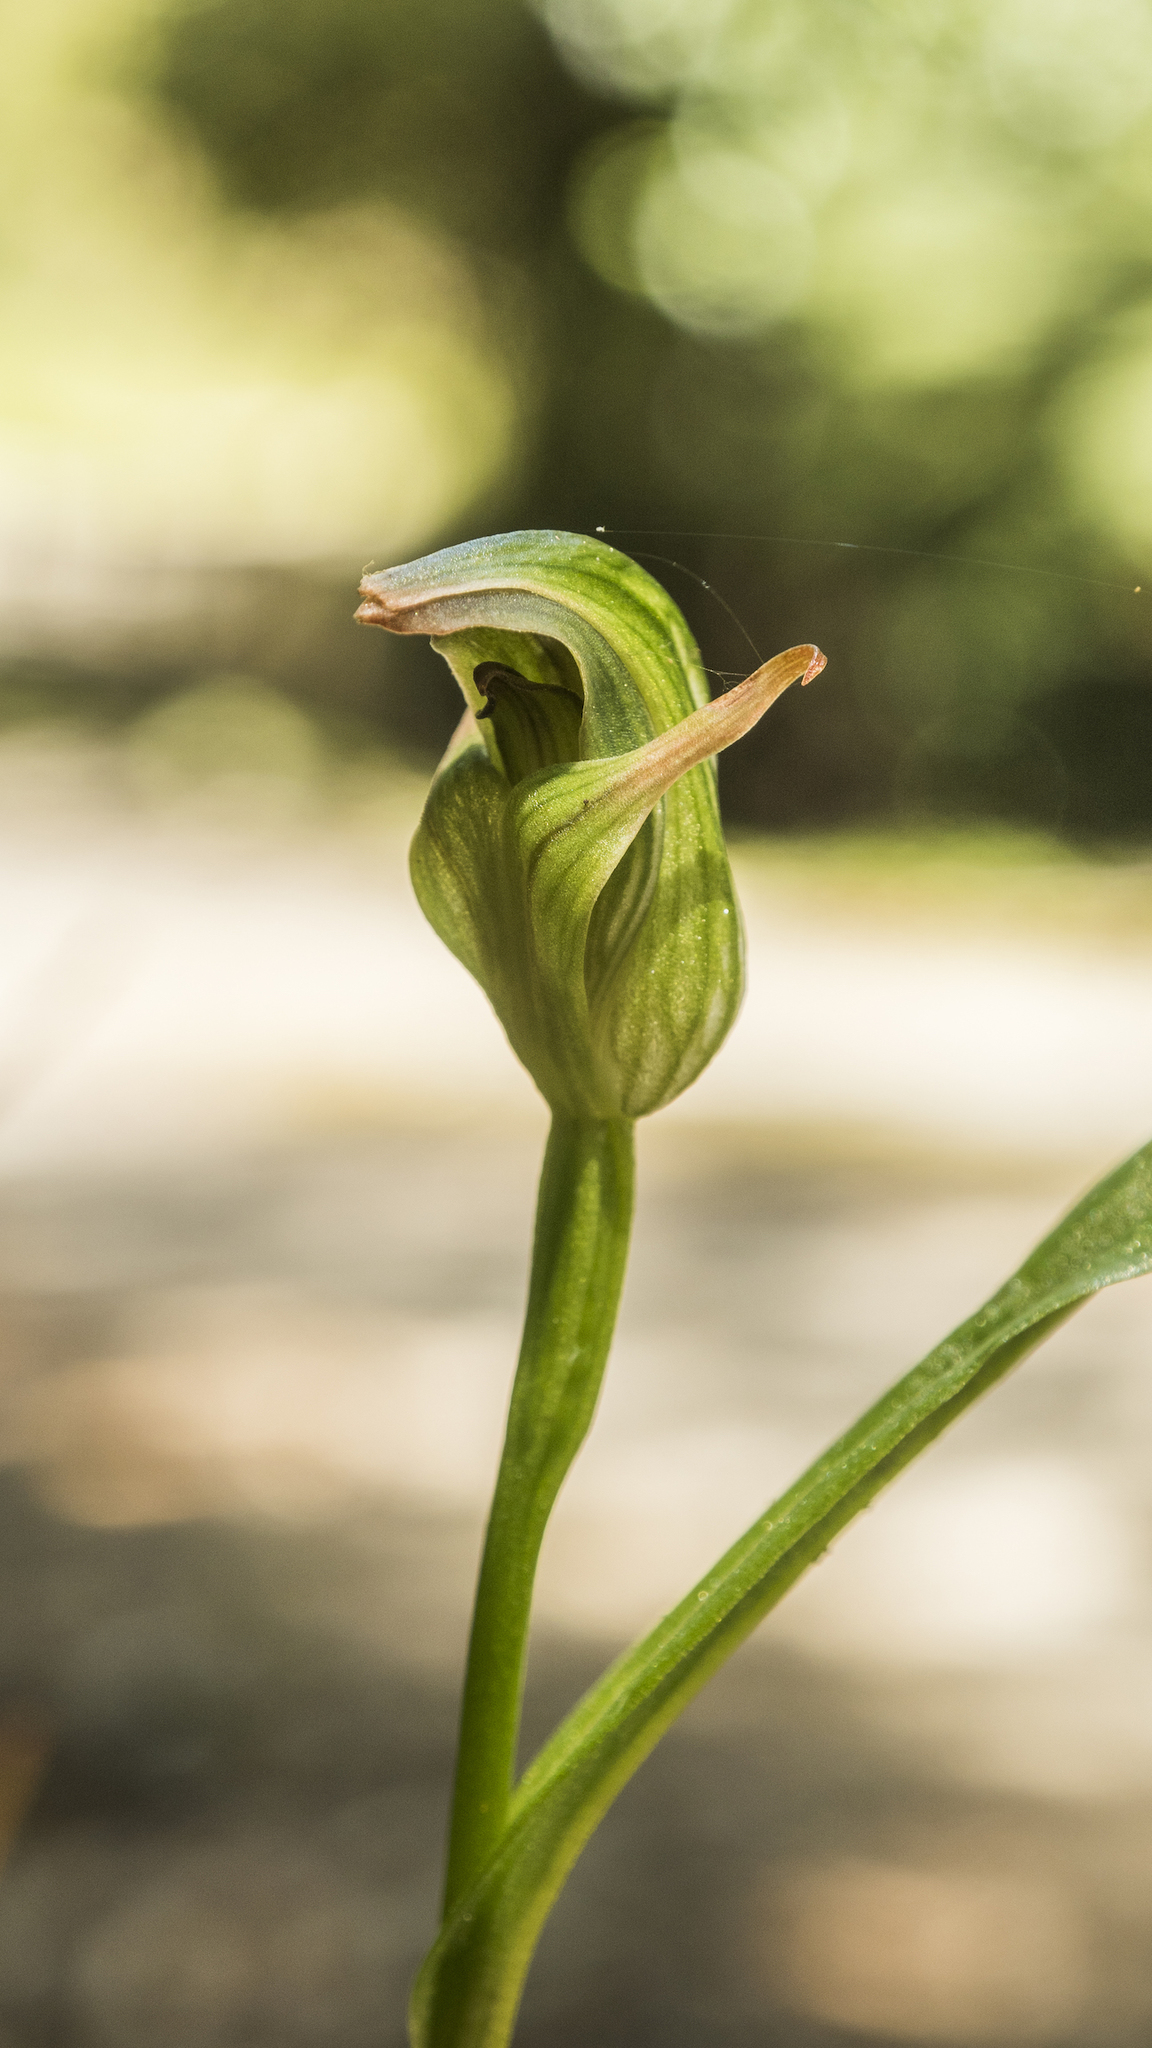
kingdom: Plantae
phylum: Tracheophyta
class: Liliopsida
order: Asparagales
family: Orchidaceae
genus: Pterostylis
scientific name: Pterostylis montana
